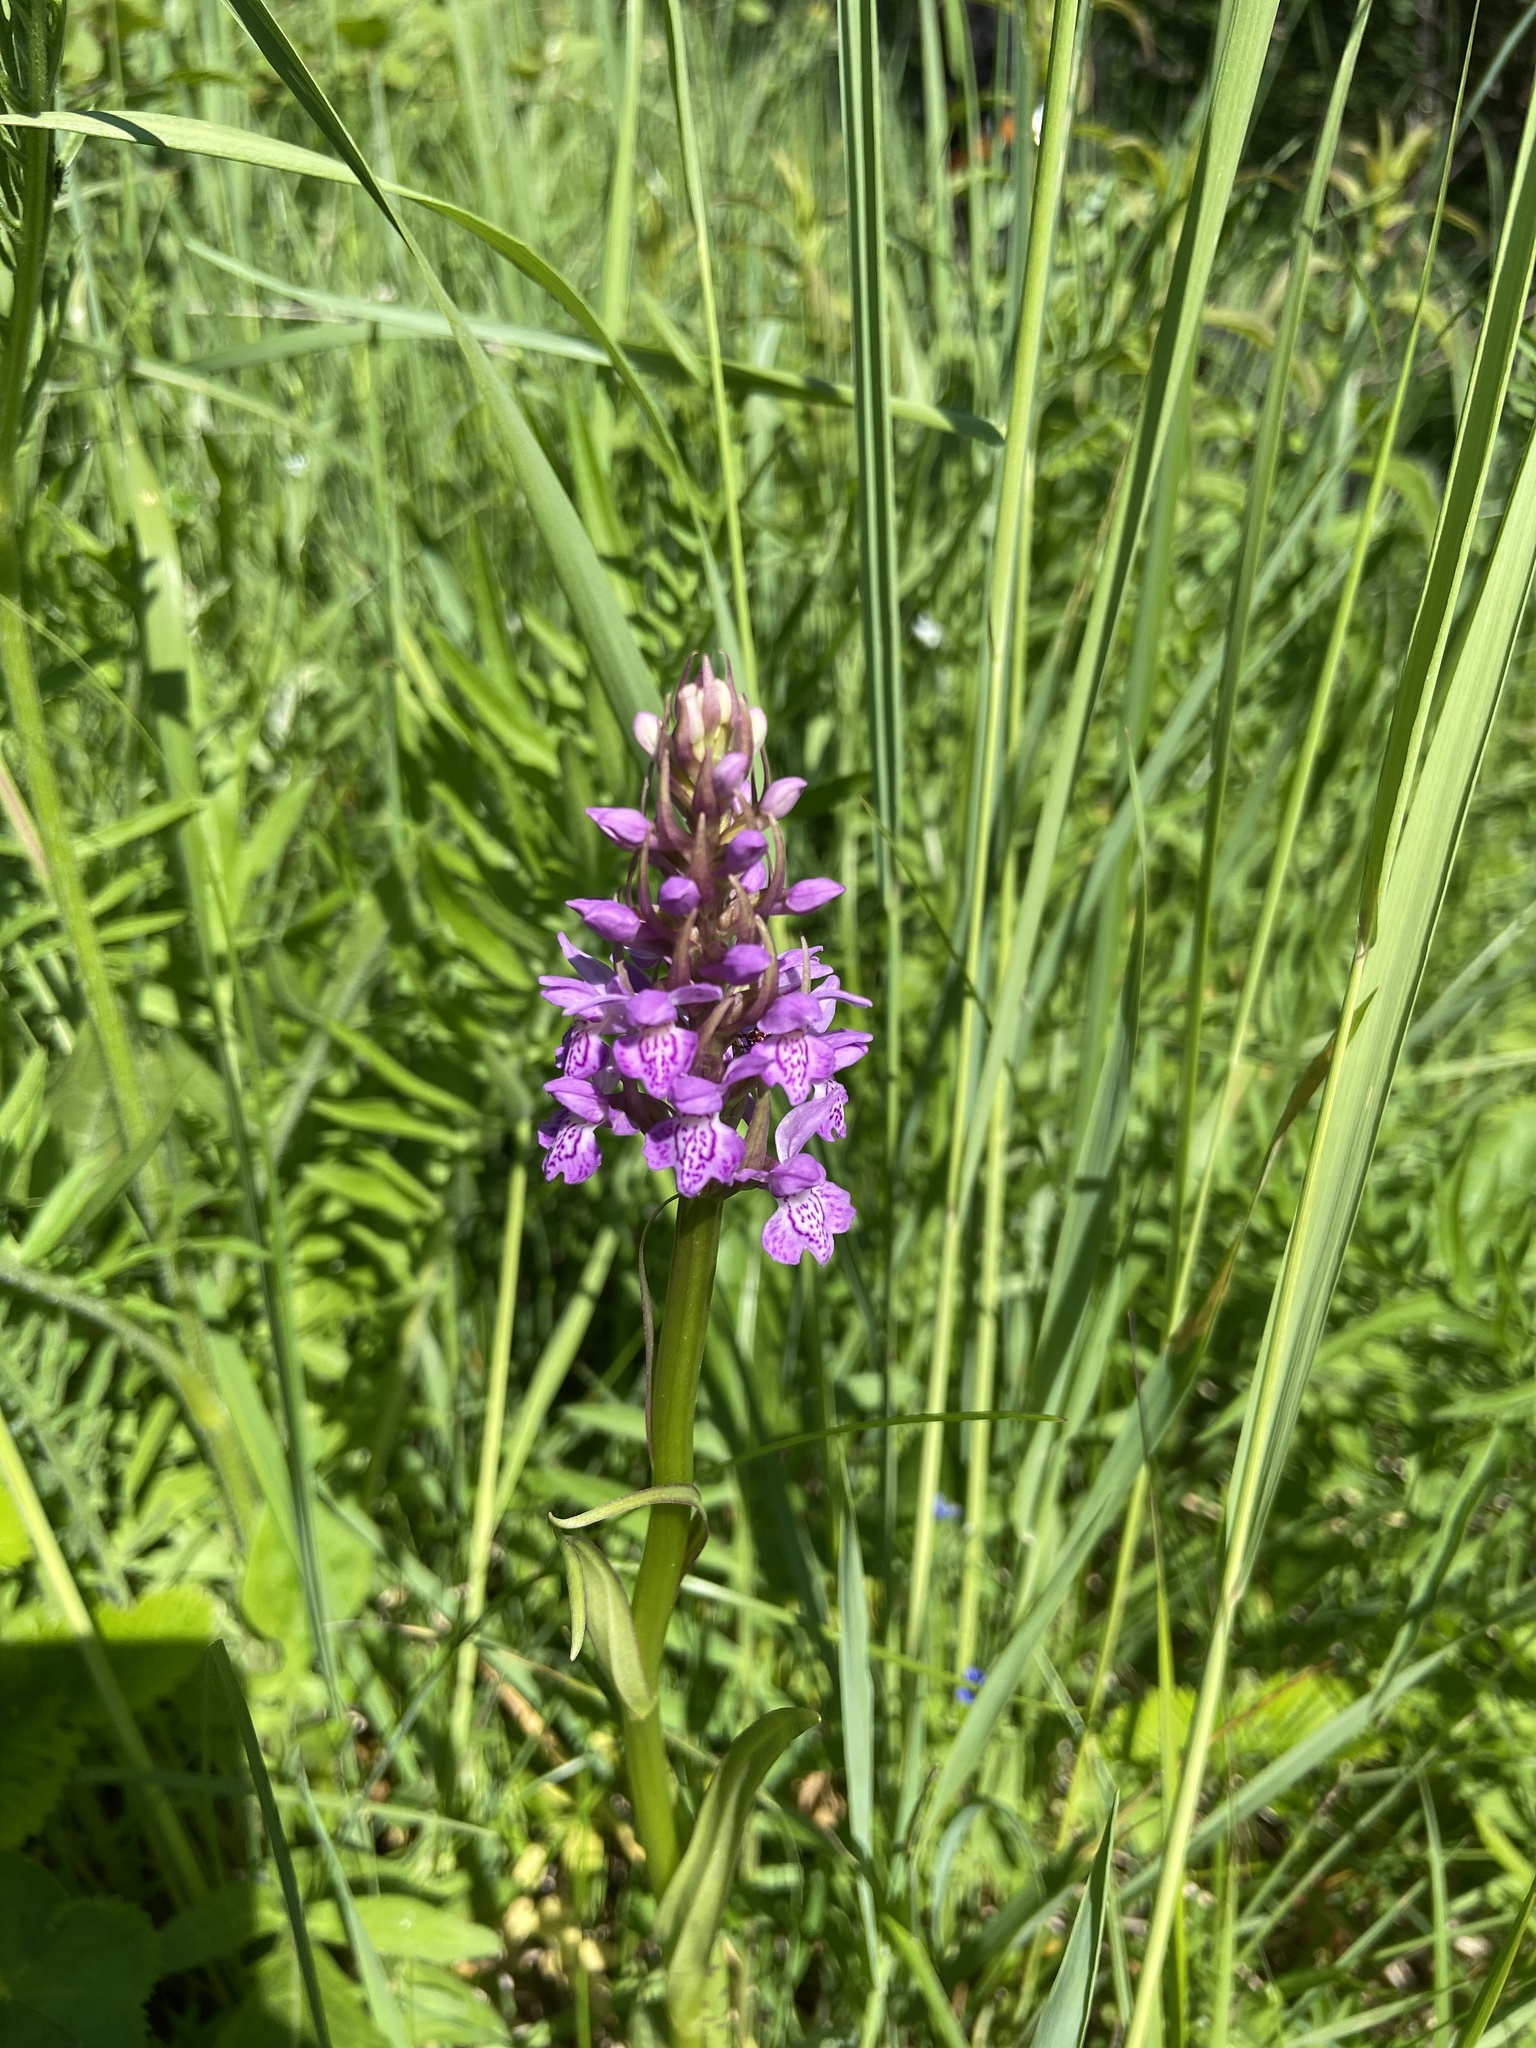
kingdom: Plantae
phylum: Tracheophyta
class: Liliopsida
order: Asparagales
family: Orchidaceae
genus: Dactylorhiza
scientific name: Dactylorhiza majalis
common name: Marsh orchid
